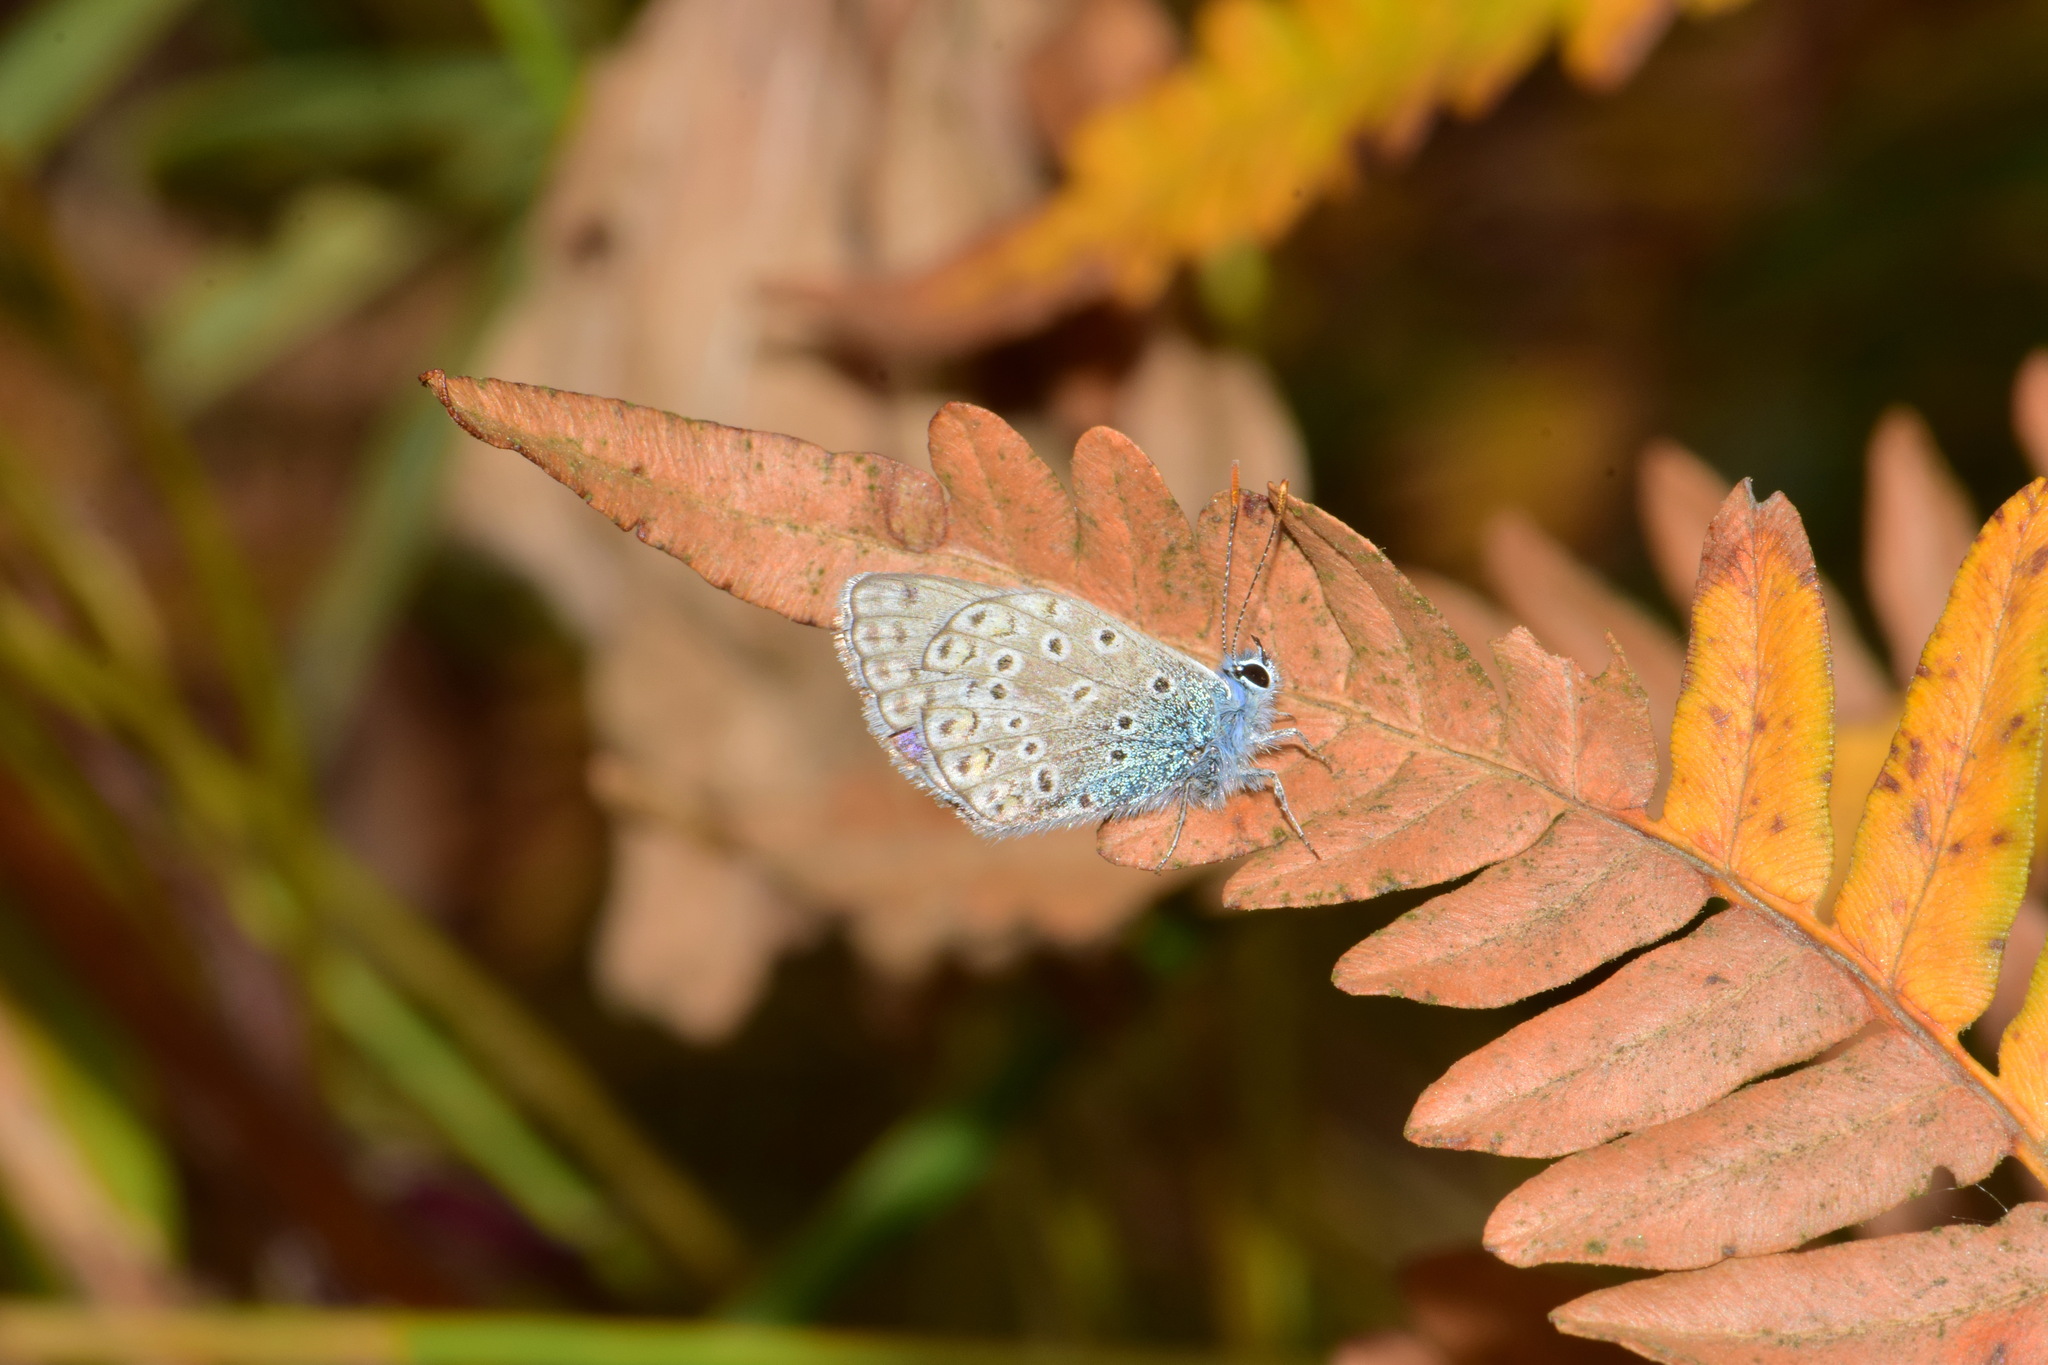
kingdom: Animalia
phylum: Arthropoda
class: Insecta
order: Lepidoptera
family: Lycaenidae
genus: Polyommatus
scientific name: Polyommatus icarus
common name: Common blue
